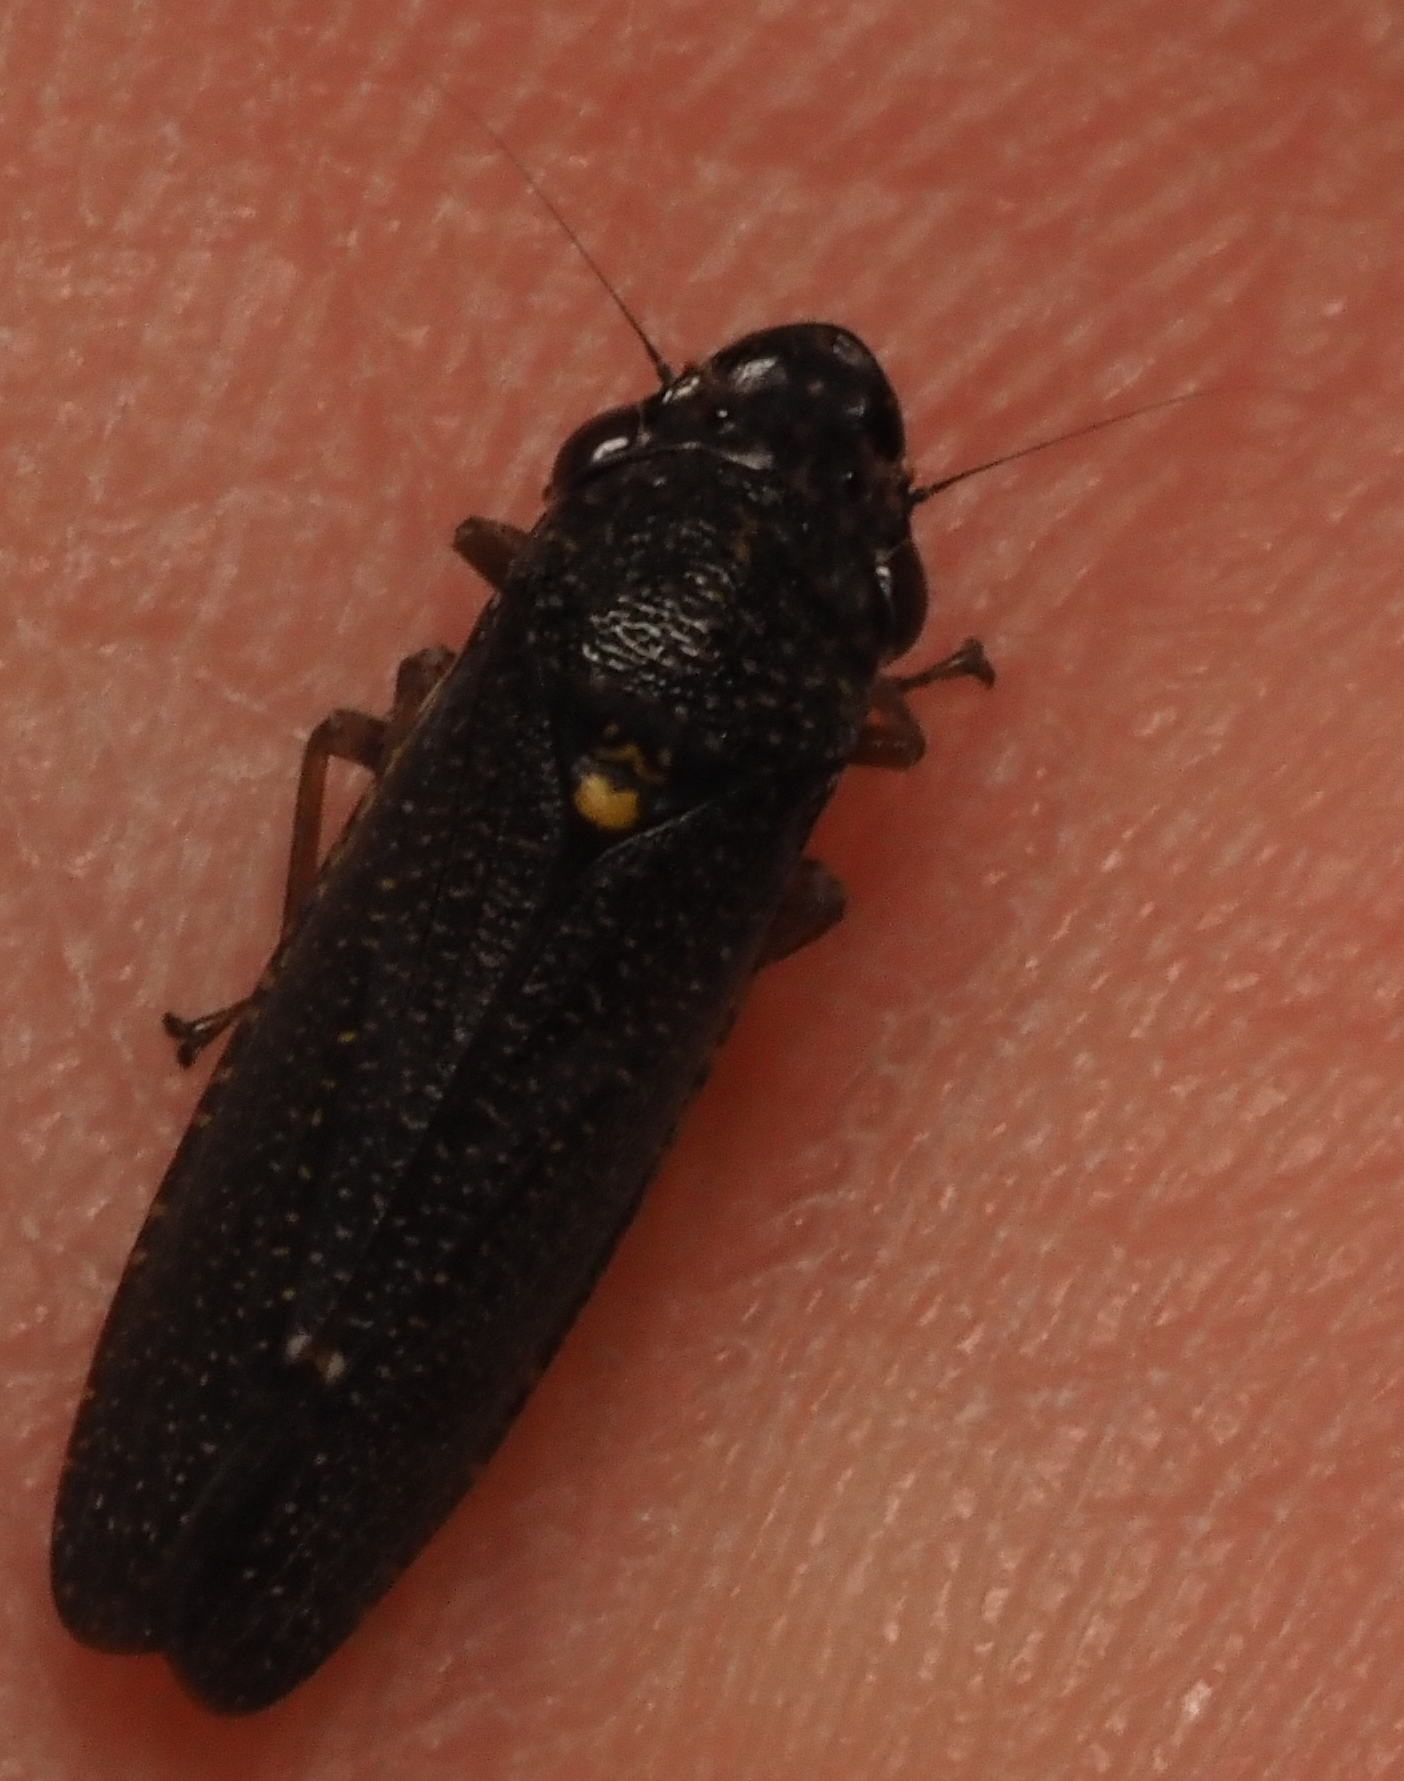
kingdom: Animalia
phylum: Arthropoda
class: Insecta
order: Hemiptera
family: Cicadellidae
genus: Paraulacizes
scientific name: Paraulacizes irrorata
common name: Speckled sharpshooter
